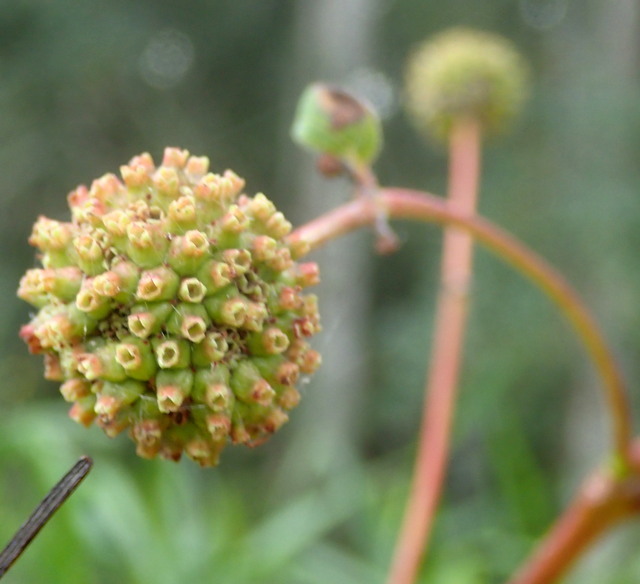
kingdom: Plantae
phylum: Tracheophyta
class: Magnoliopsida
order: Gentianales
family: Rubiaceae
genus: Cephalanthus
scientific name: Cephalanthus occidentalis
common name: Button-willow
